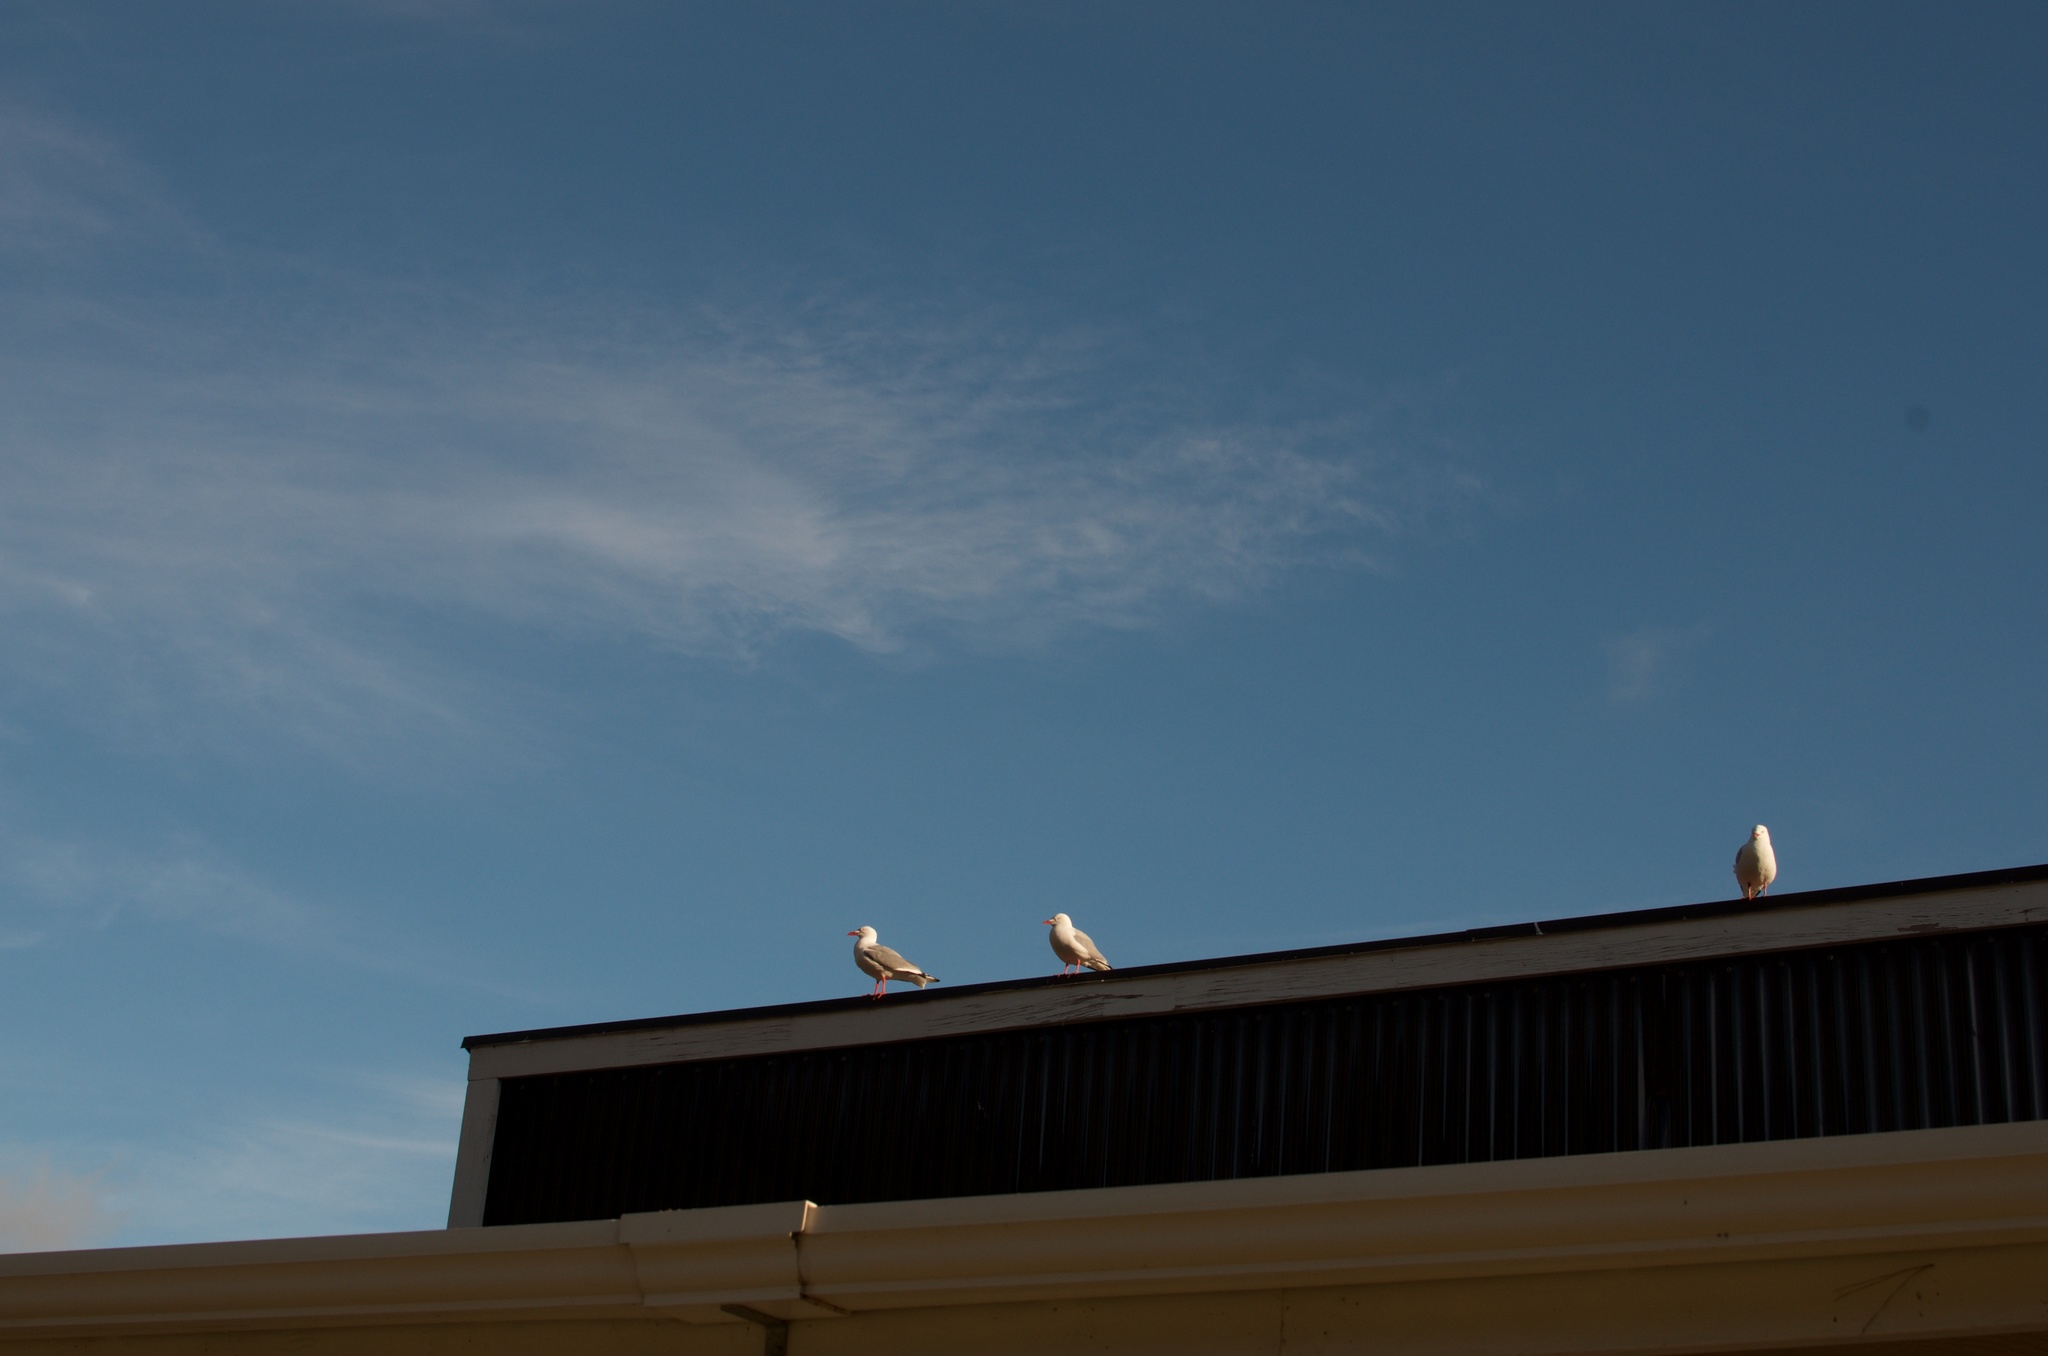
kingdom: Animalia
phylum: Chordata
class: Aves
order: Charadriiformes
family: Laridae
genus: Chroicocephalus
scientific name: Chroicocephalus novaehollandiae
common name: Silver gull
